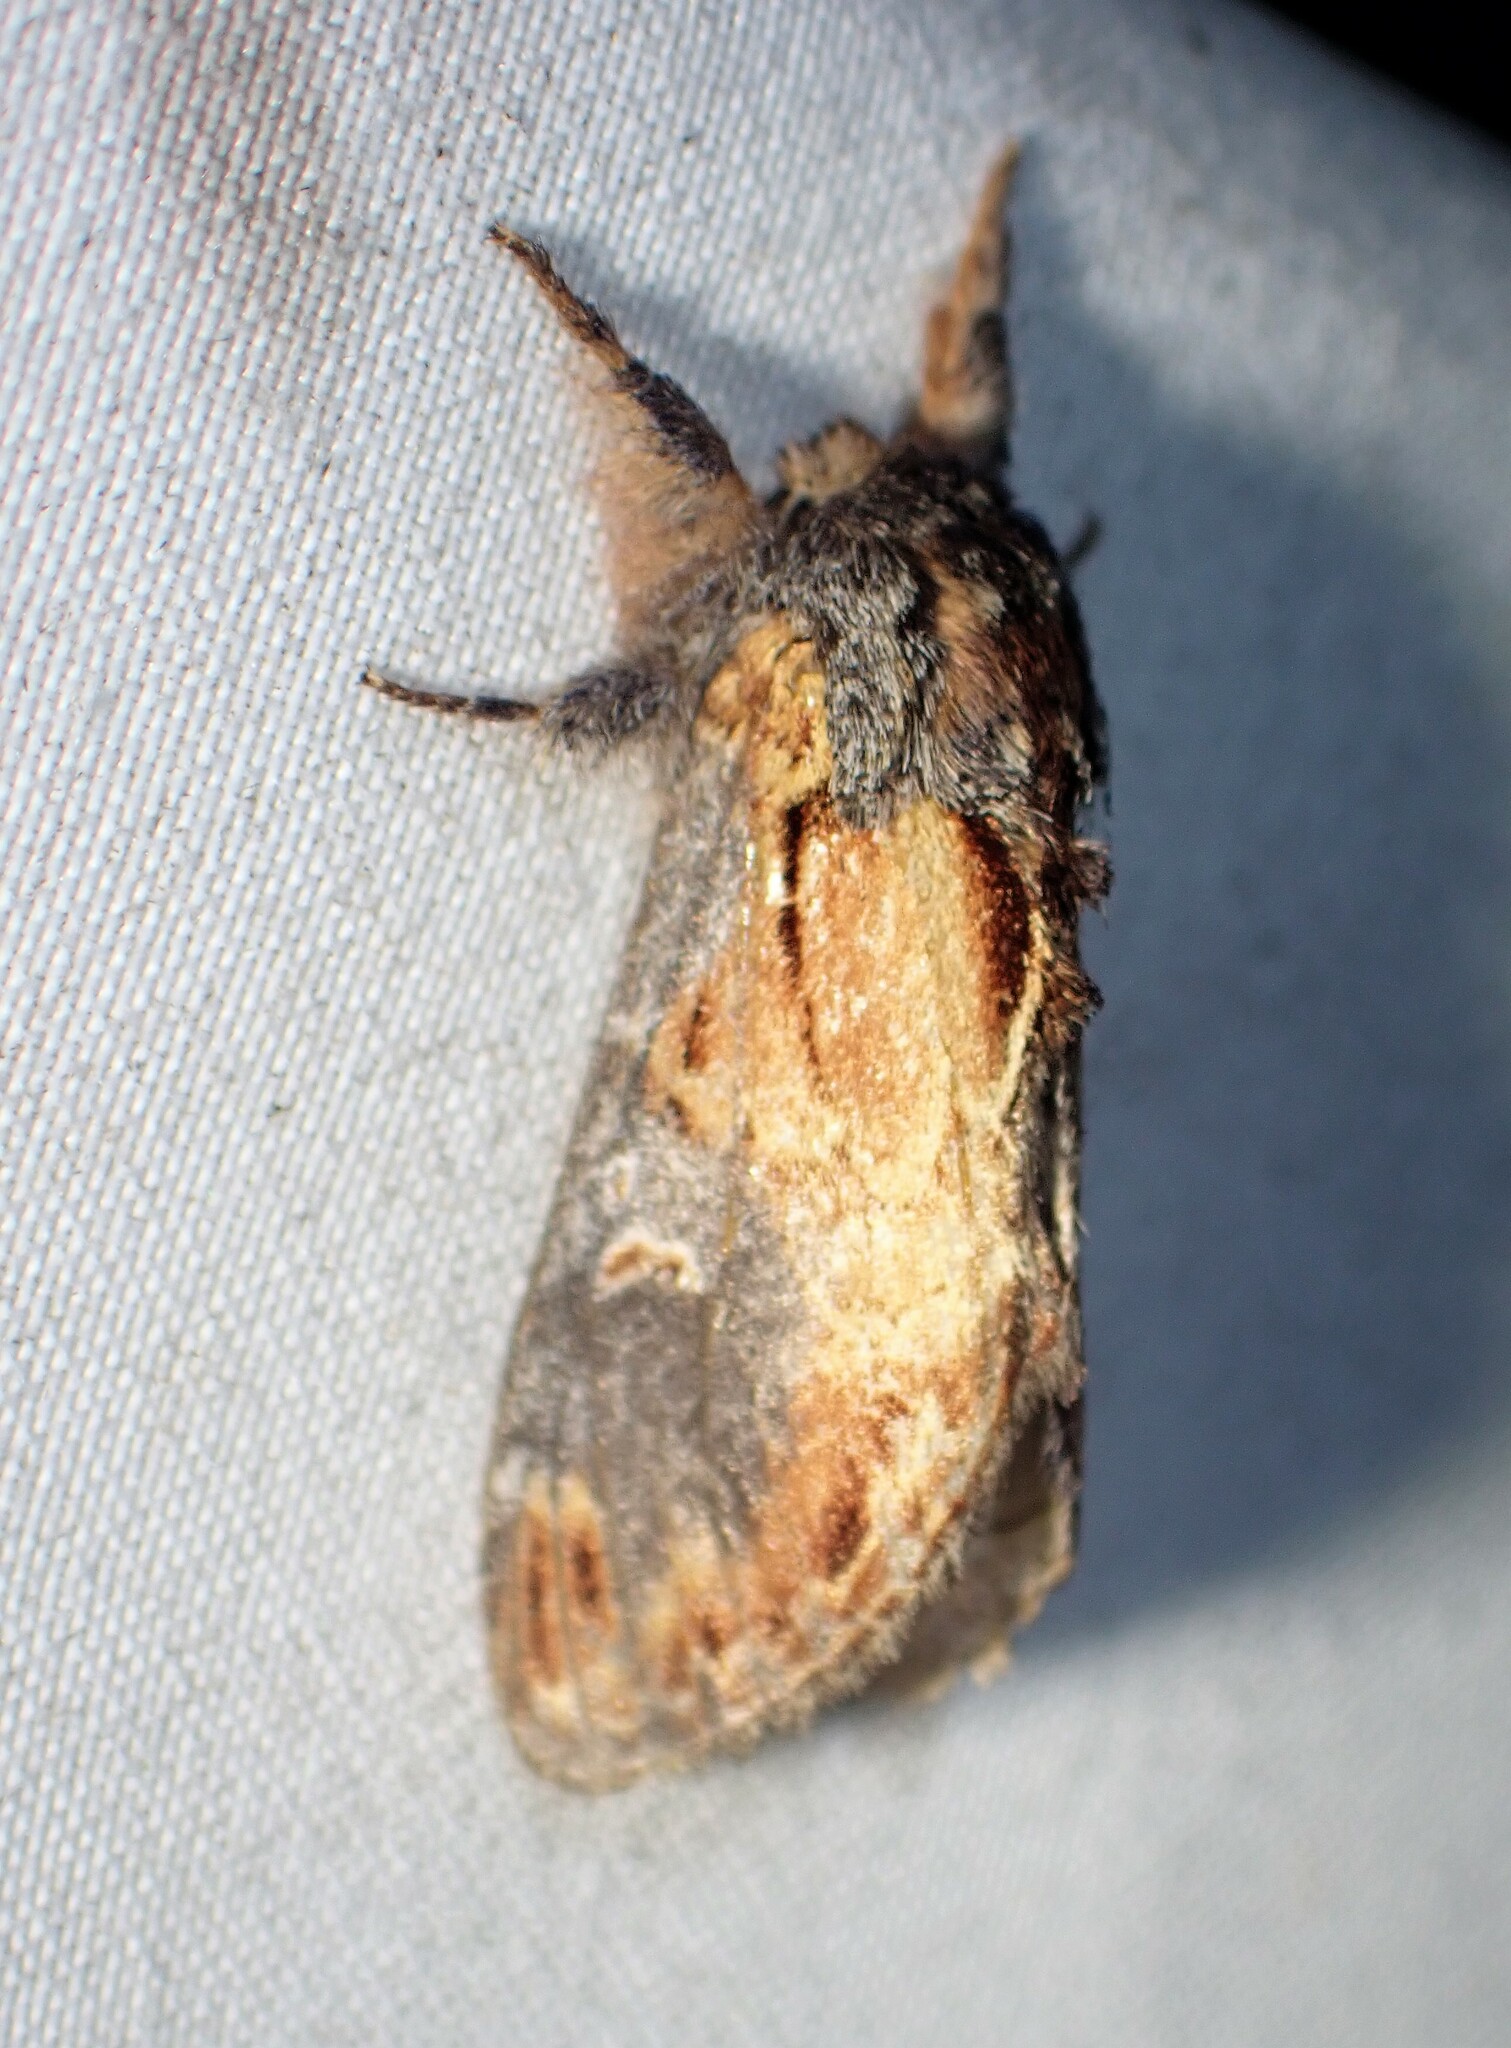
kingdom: Animalia
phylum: Arthropoda
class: Insecta
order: Lepidoptera
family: Notodontidae
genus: Notodonta
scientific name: Notodonta scitipennis
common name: Finned-willow prominent moth
